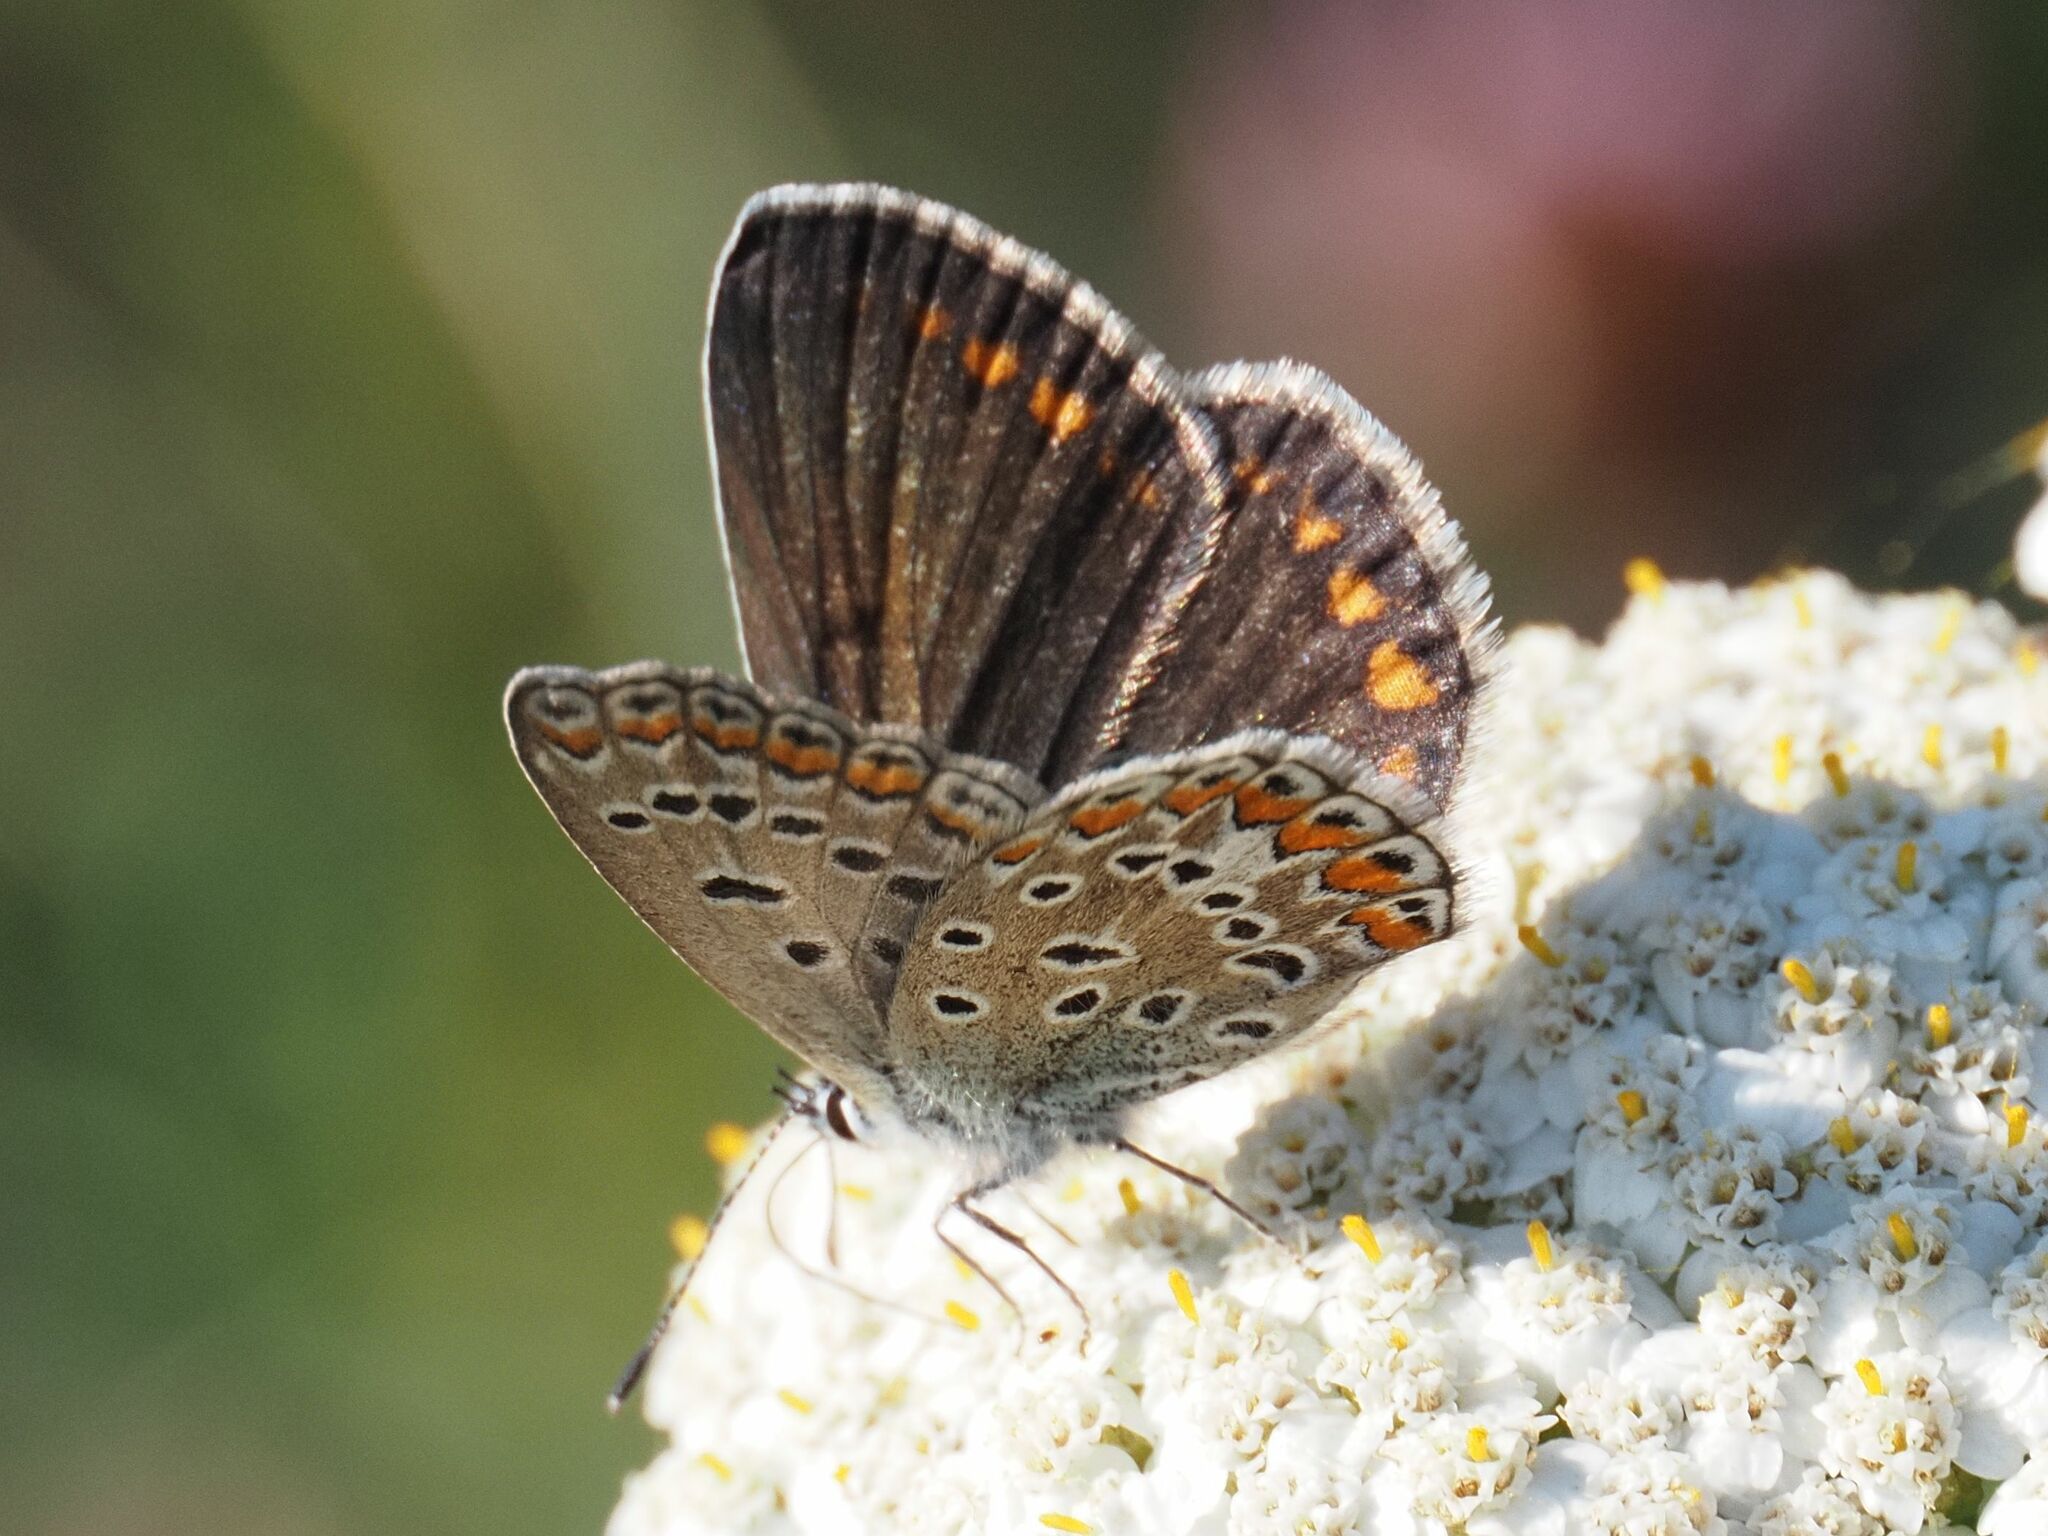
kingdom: Animalia
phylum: Arthropoda
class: Insecta
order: Lepidoptera
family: Lycaenidae
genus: Polyommatus
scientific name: Polyommatus icarus
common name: Common blue
